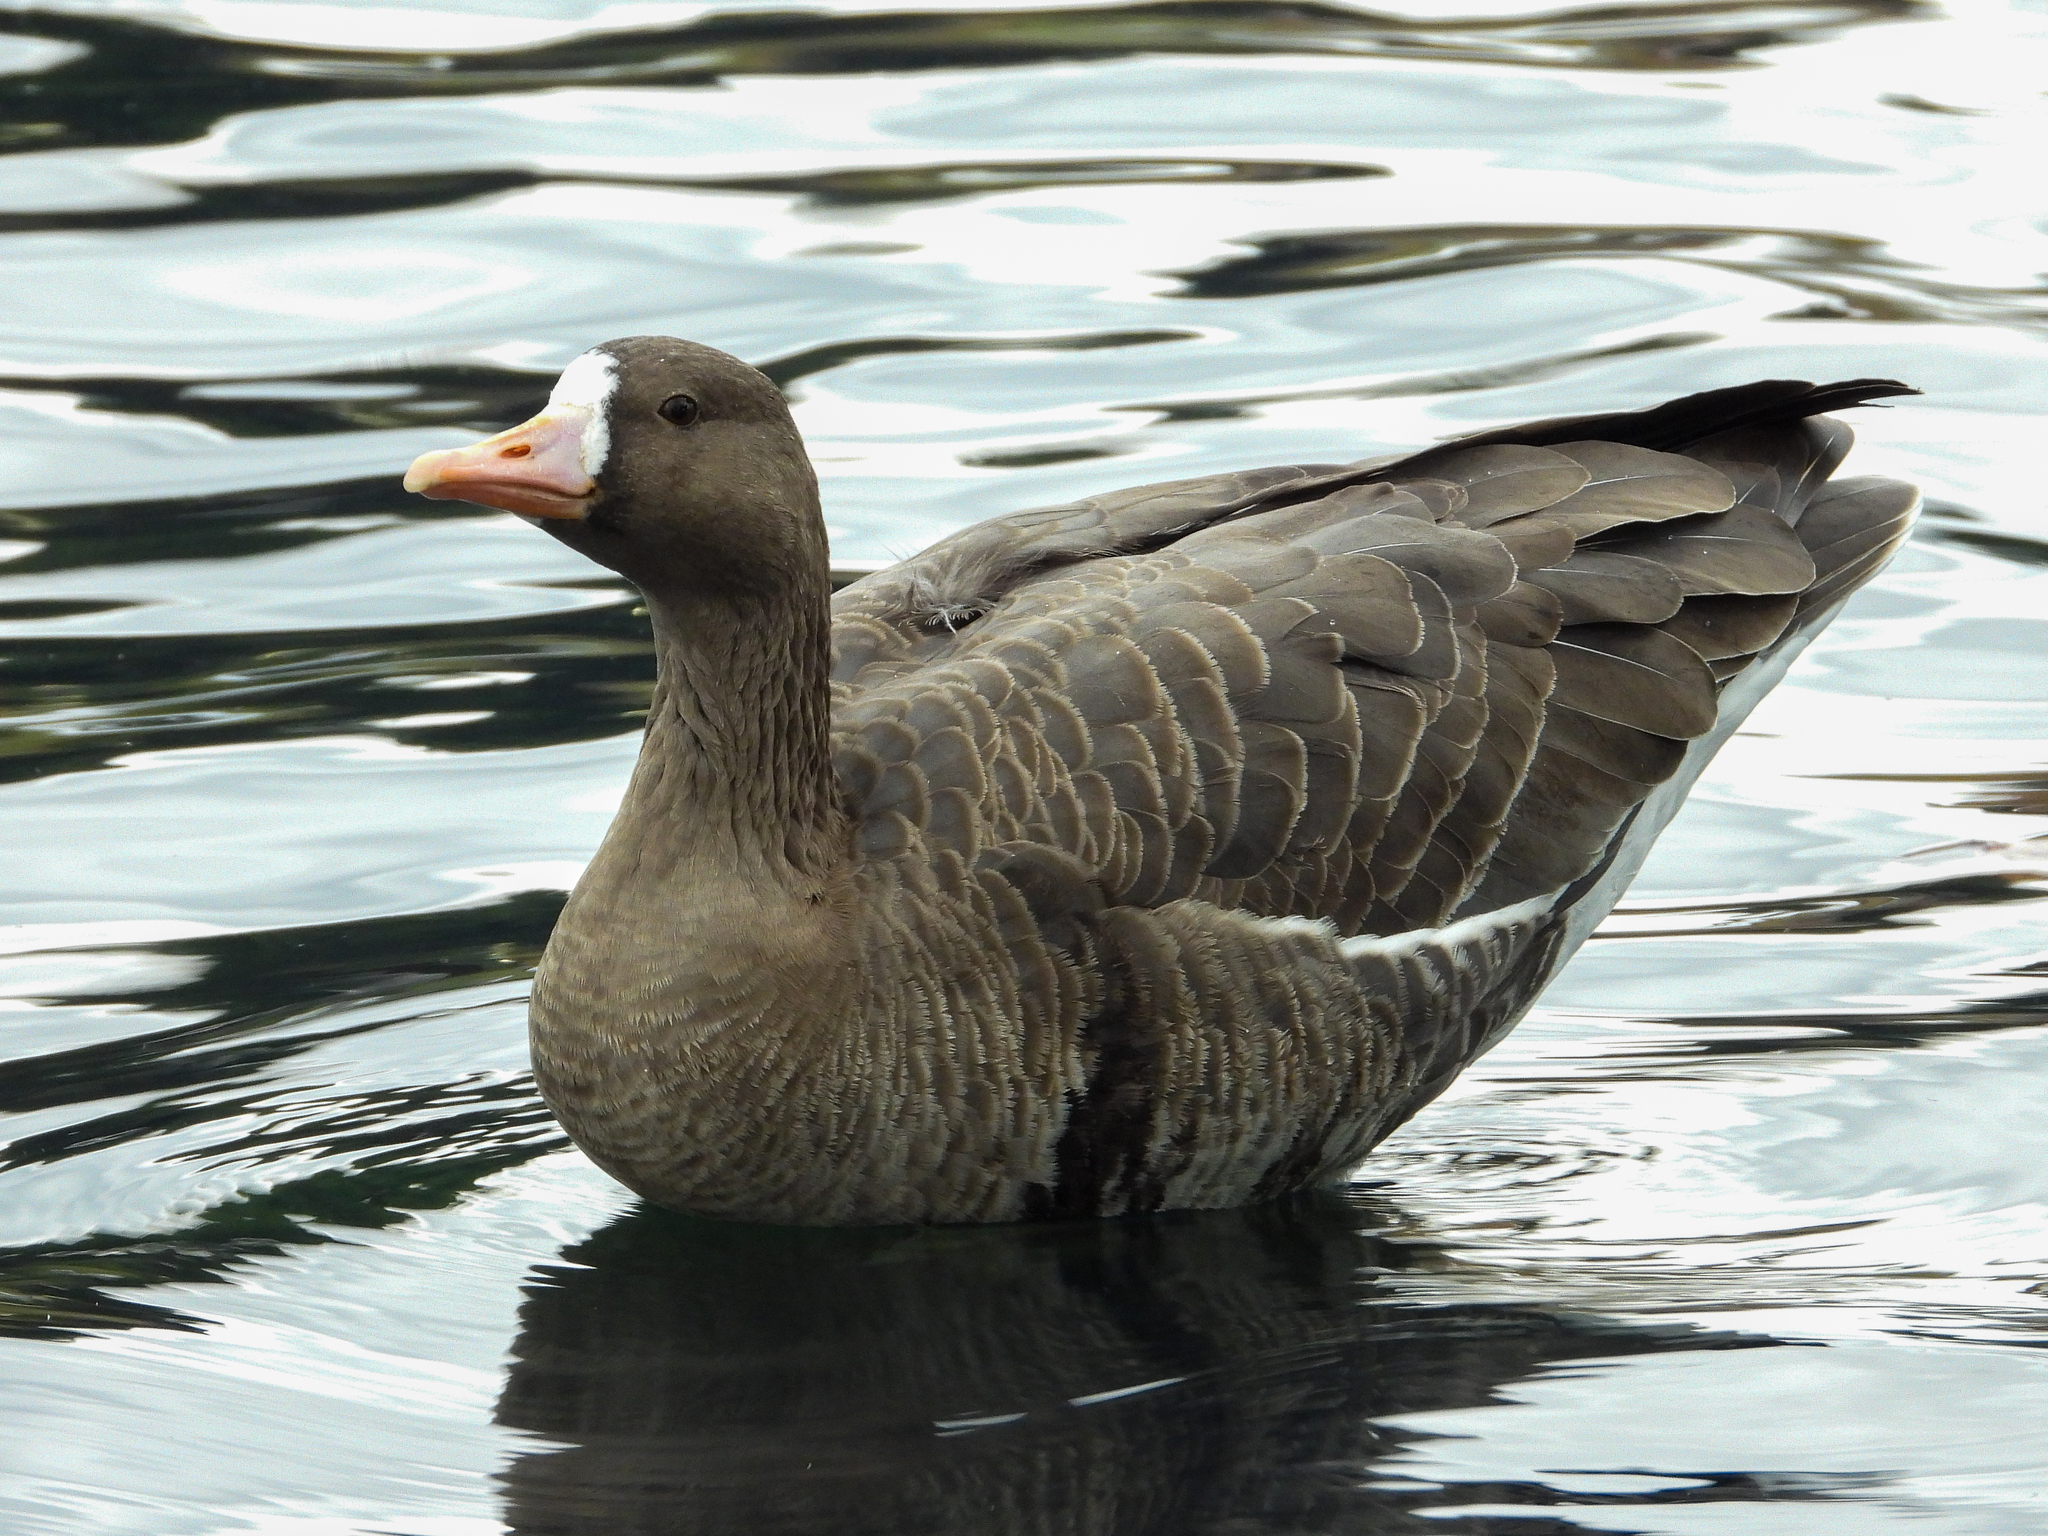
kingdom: Animalia
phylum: Chordata
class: Aves
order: Anseriformes
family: Anatidae
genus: Anser
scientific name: Anser albifrons
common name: Greater white-fronted goose
